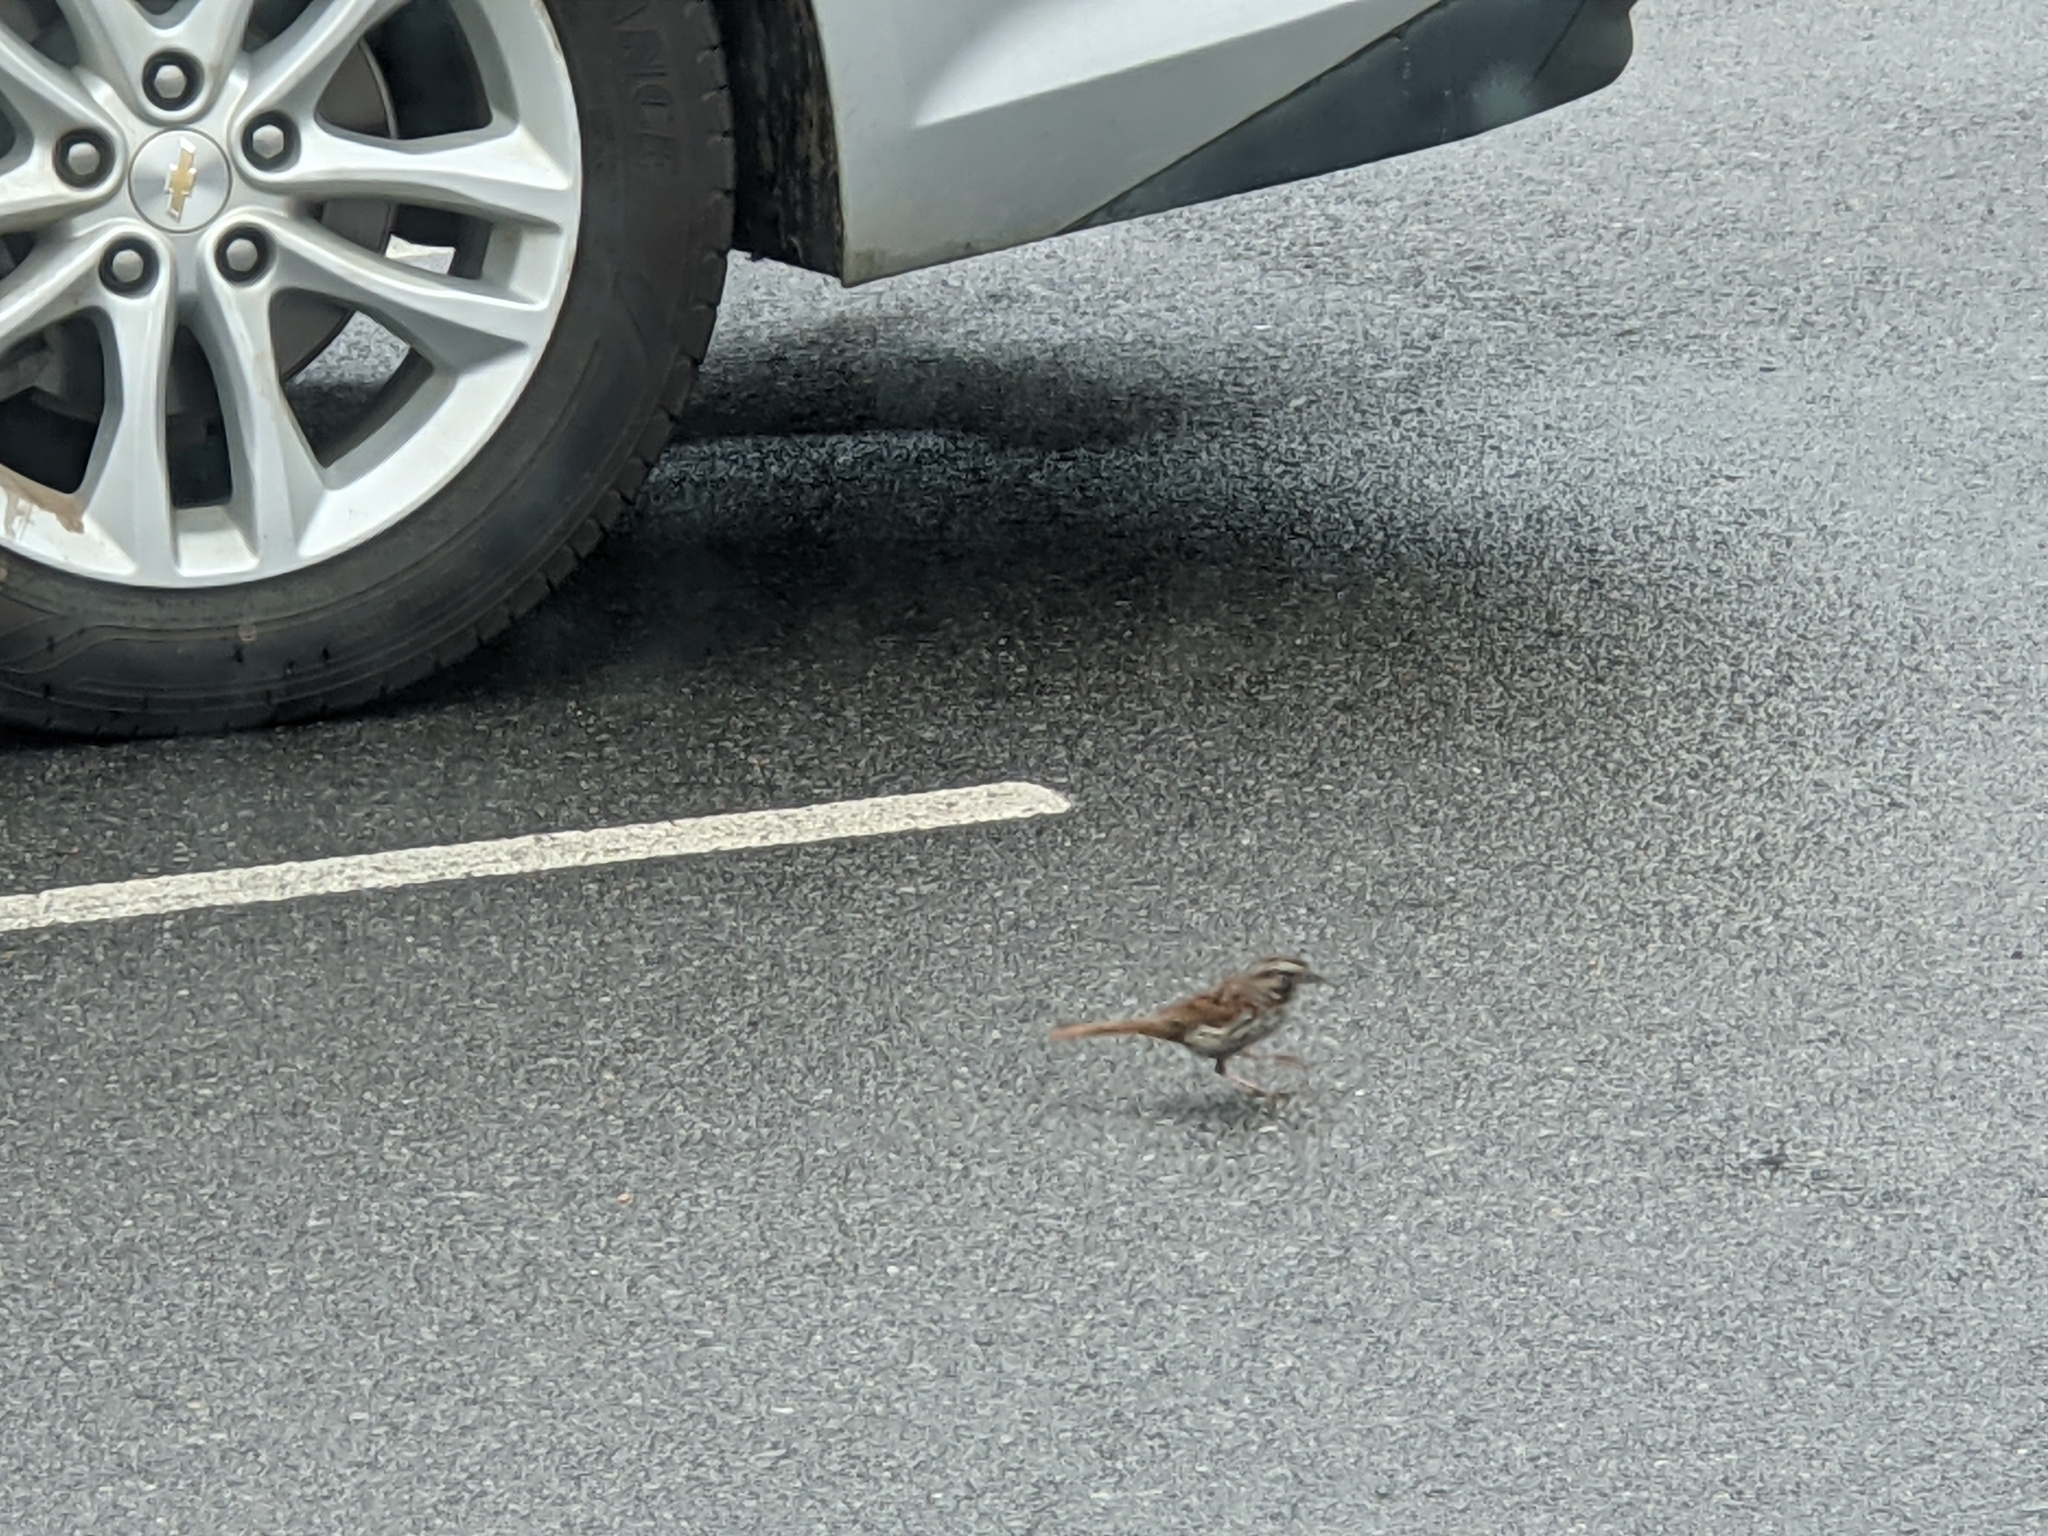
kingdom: Animalia
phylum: Chordata
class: Aves
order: Passeriformes
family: Passerellidae
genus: Melospiza
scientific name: Melospiza melodia
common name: Song sparrow
